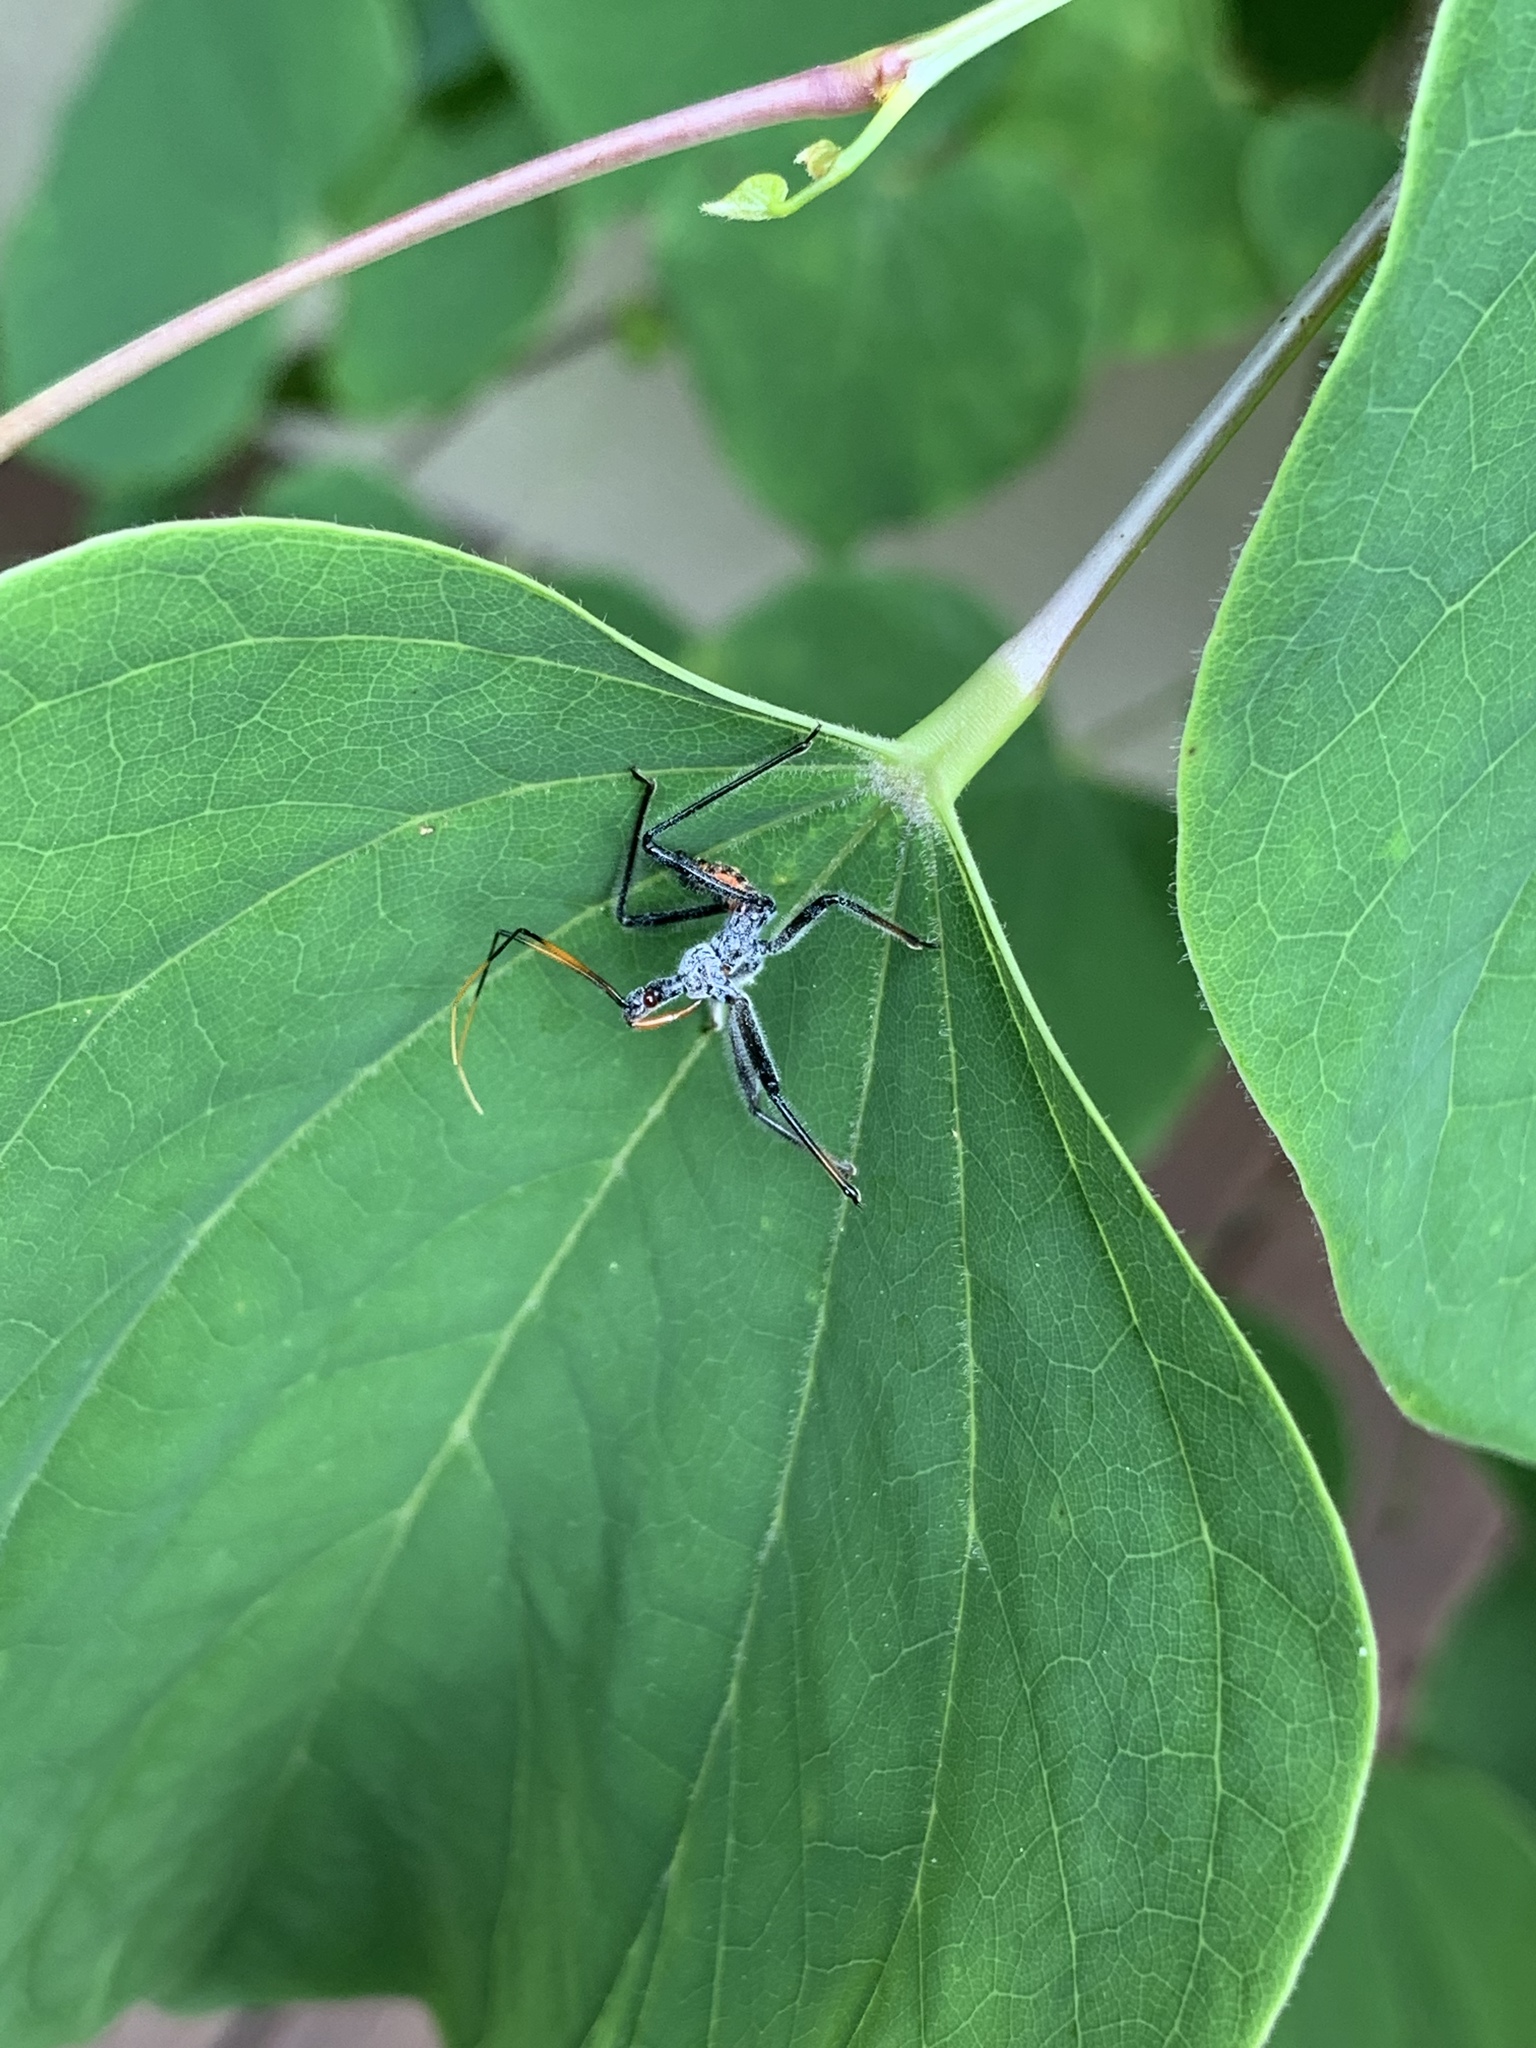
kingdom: Animalia
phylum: Arthropoda
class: Insecta
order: Hemiptera
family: Reduviidae
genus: Arilus
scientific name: Arilus cristatus
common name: North american wheel bug
